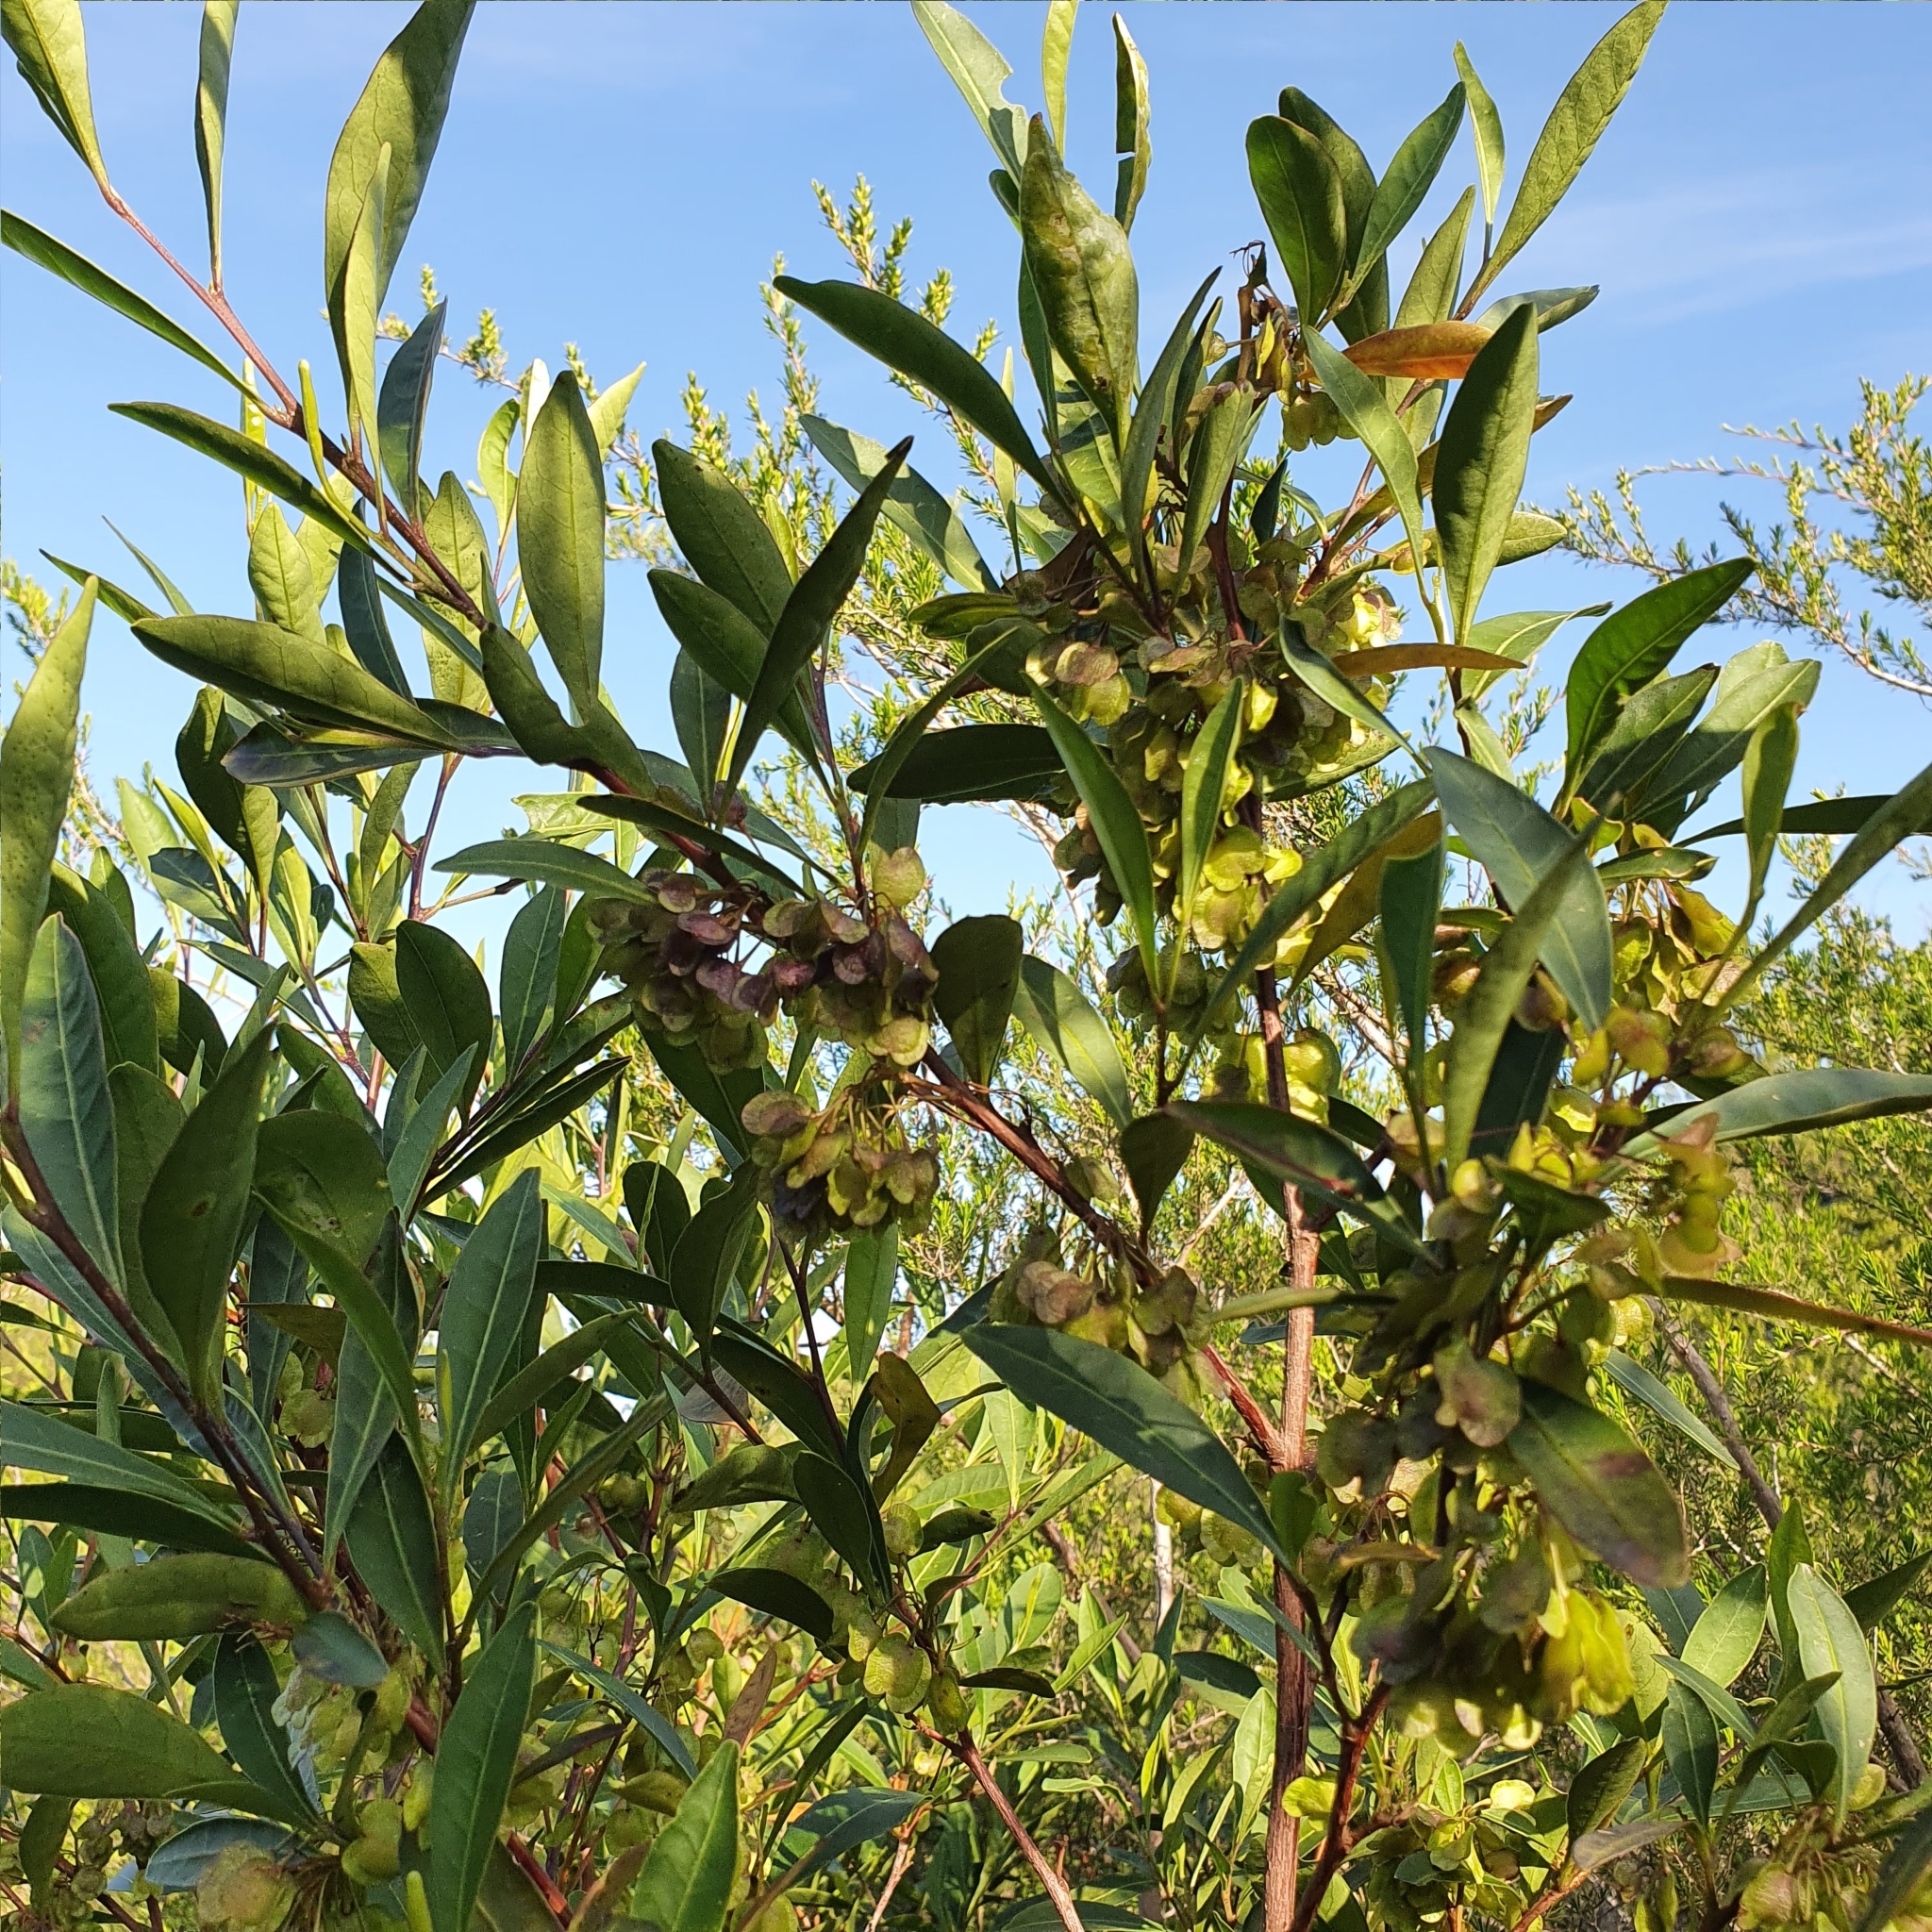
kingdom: Plantae
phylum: Tracheophyta
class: Magnoliopsida
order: Sapindales
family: Sapindaceae
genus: Dodonaea
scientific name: Dodonaea triquetra
